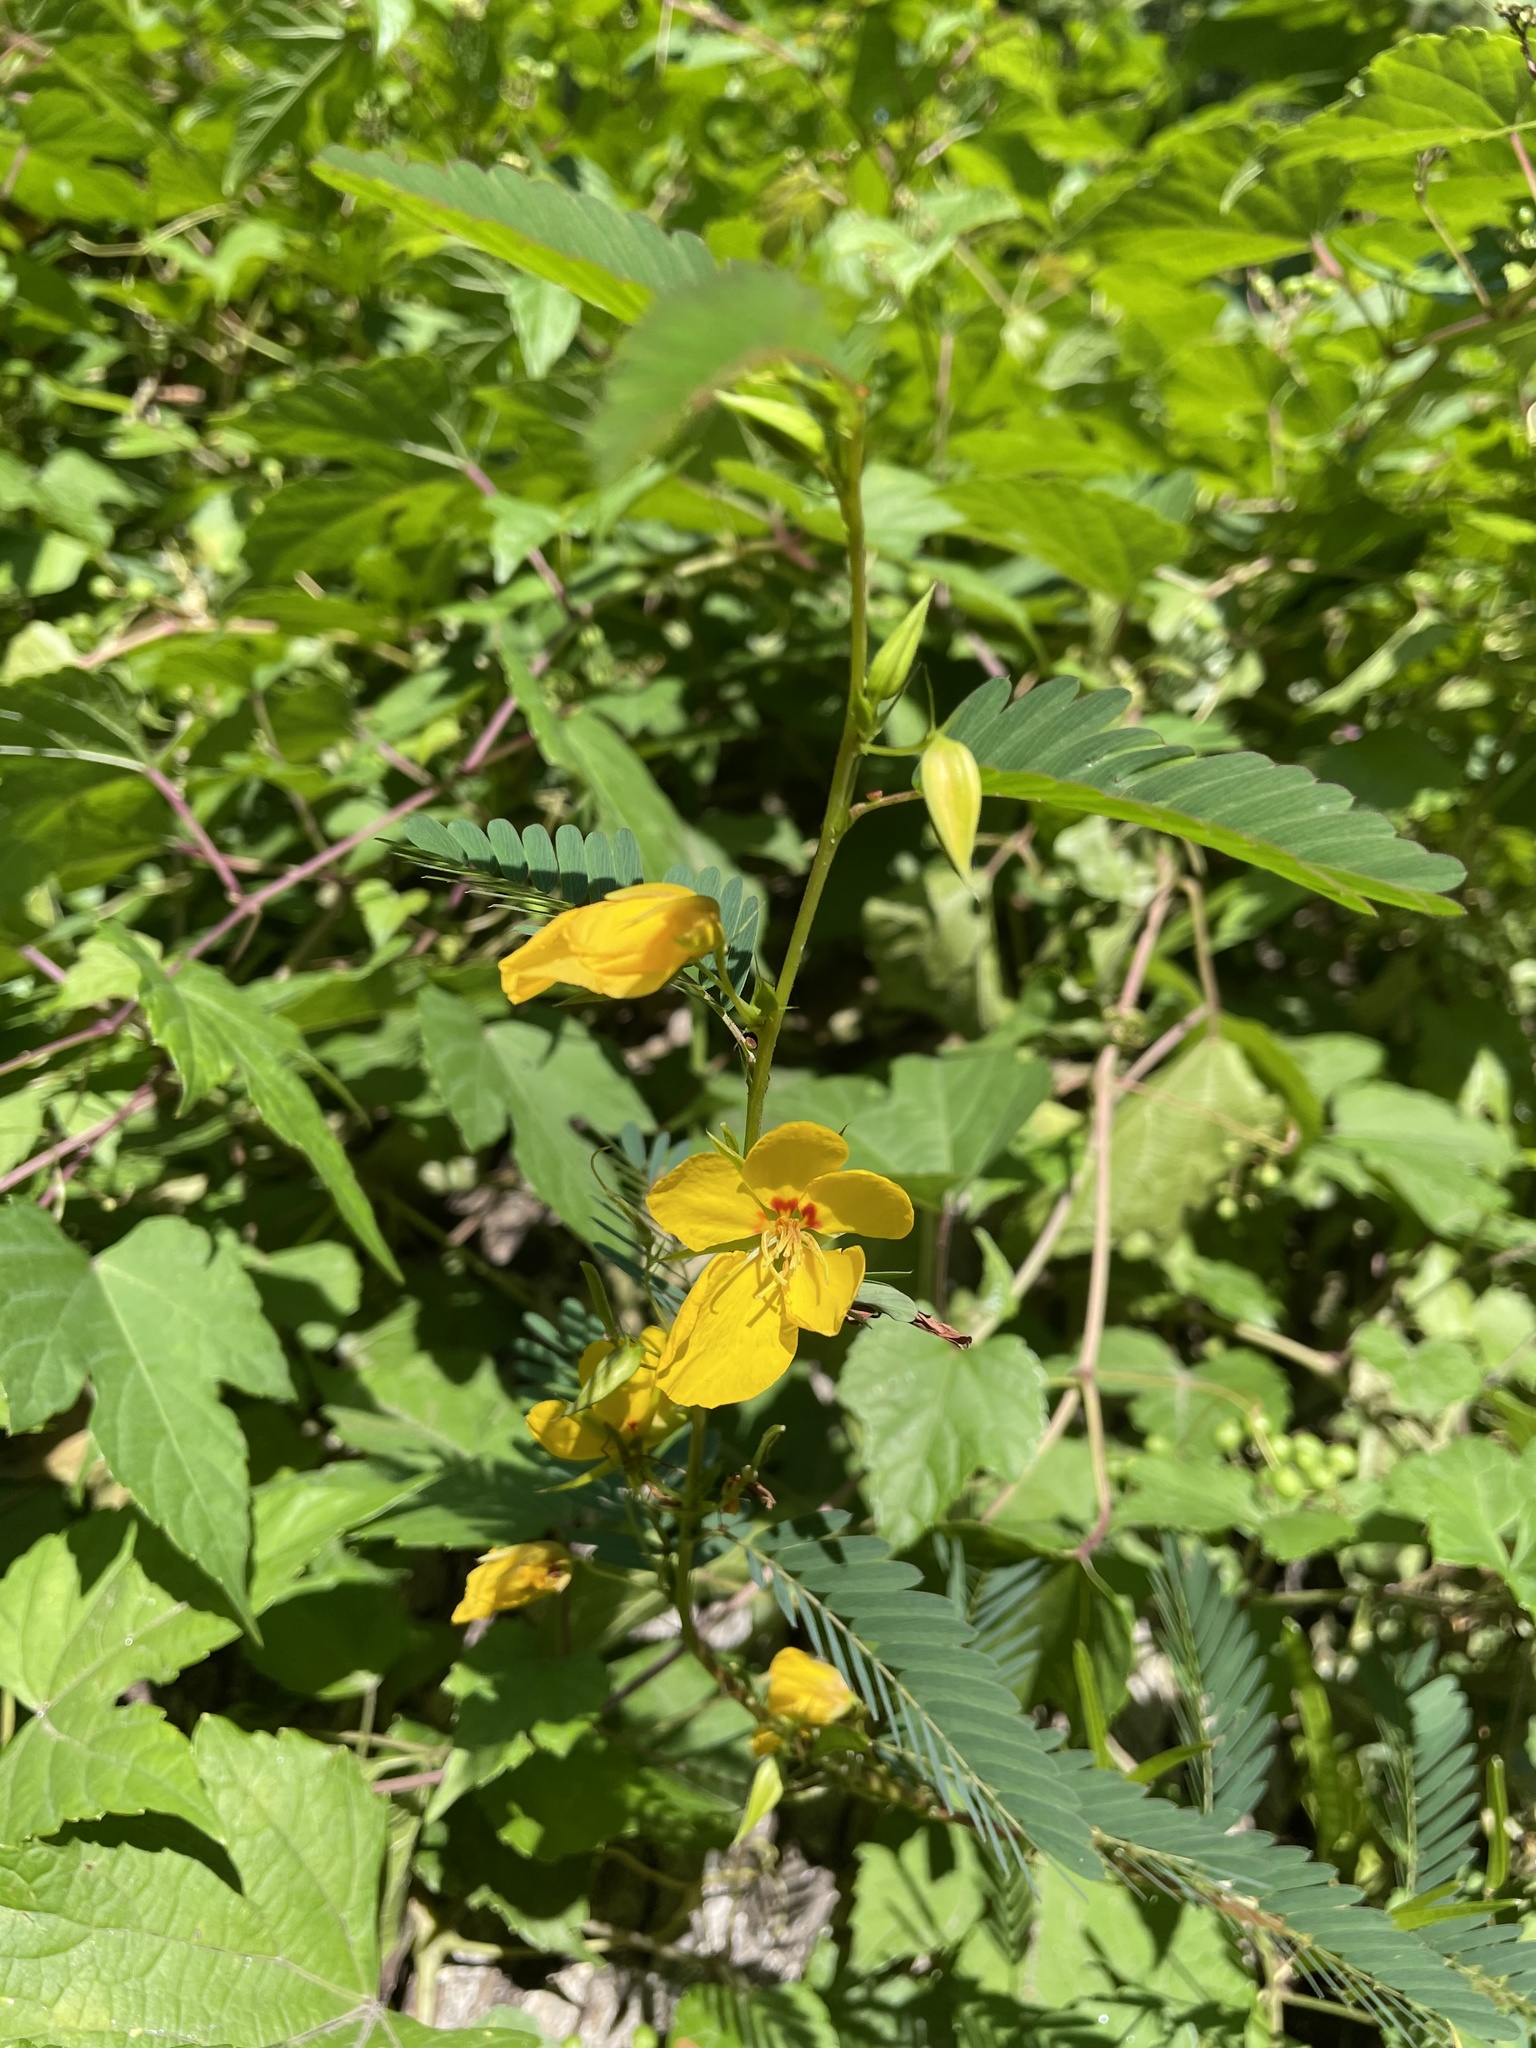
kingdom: Plantae
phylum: Tracheophyta
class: Magnoliopsida
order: Fabales
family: Fabaceae
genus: Chamaecrista
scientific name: Chamaecrista fasciculata
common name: Golden cassia
